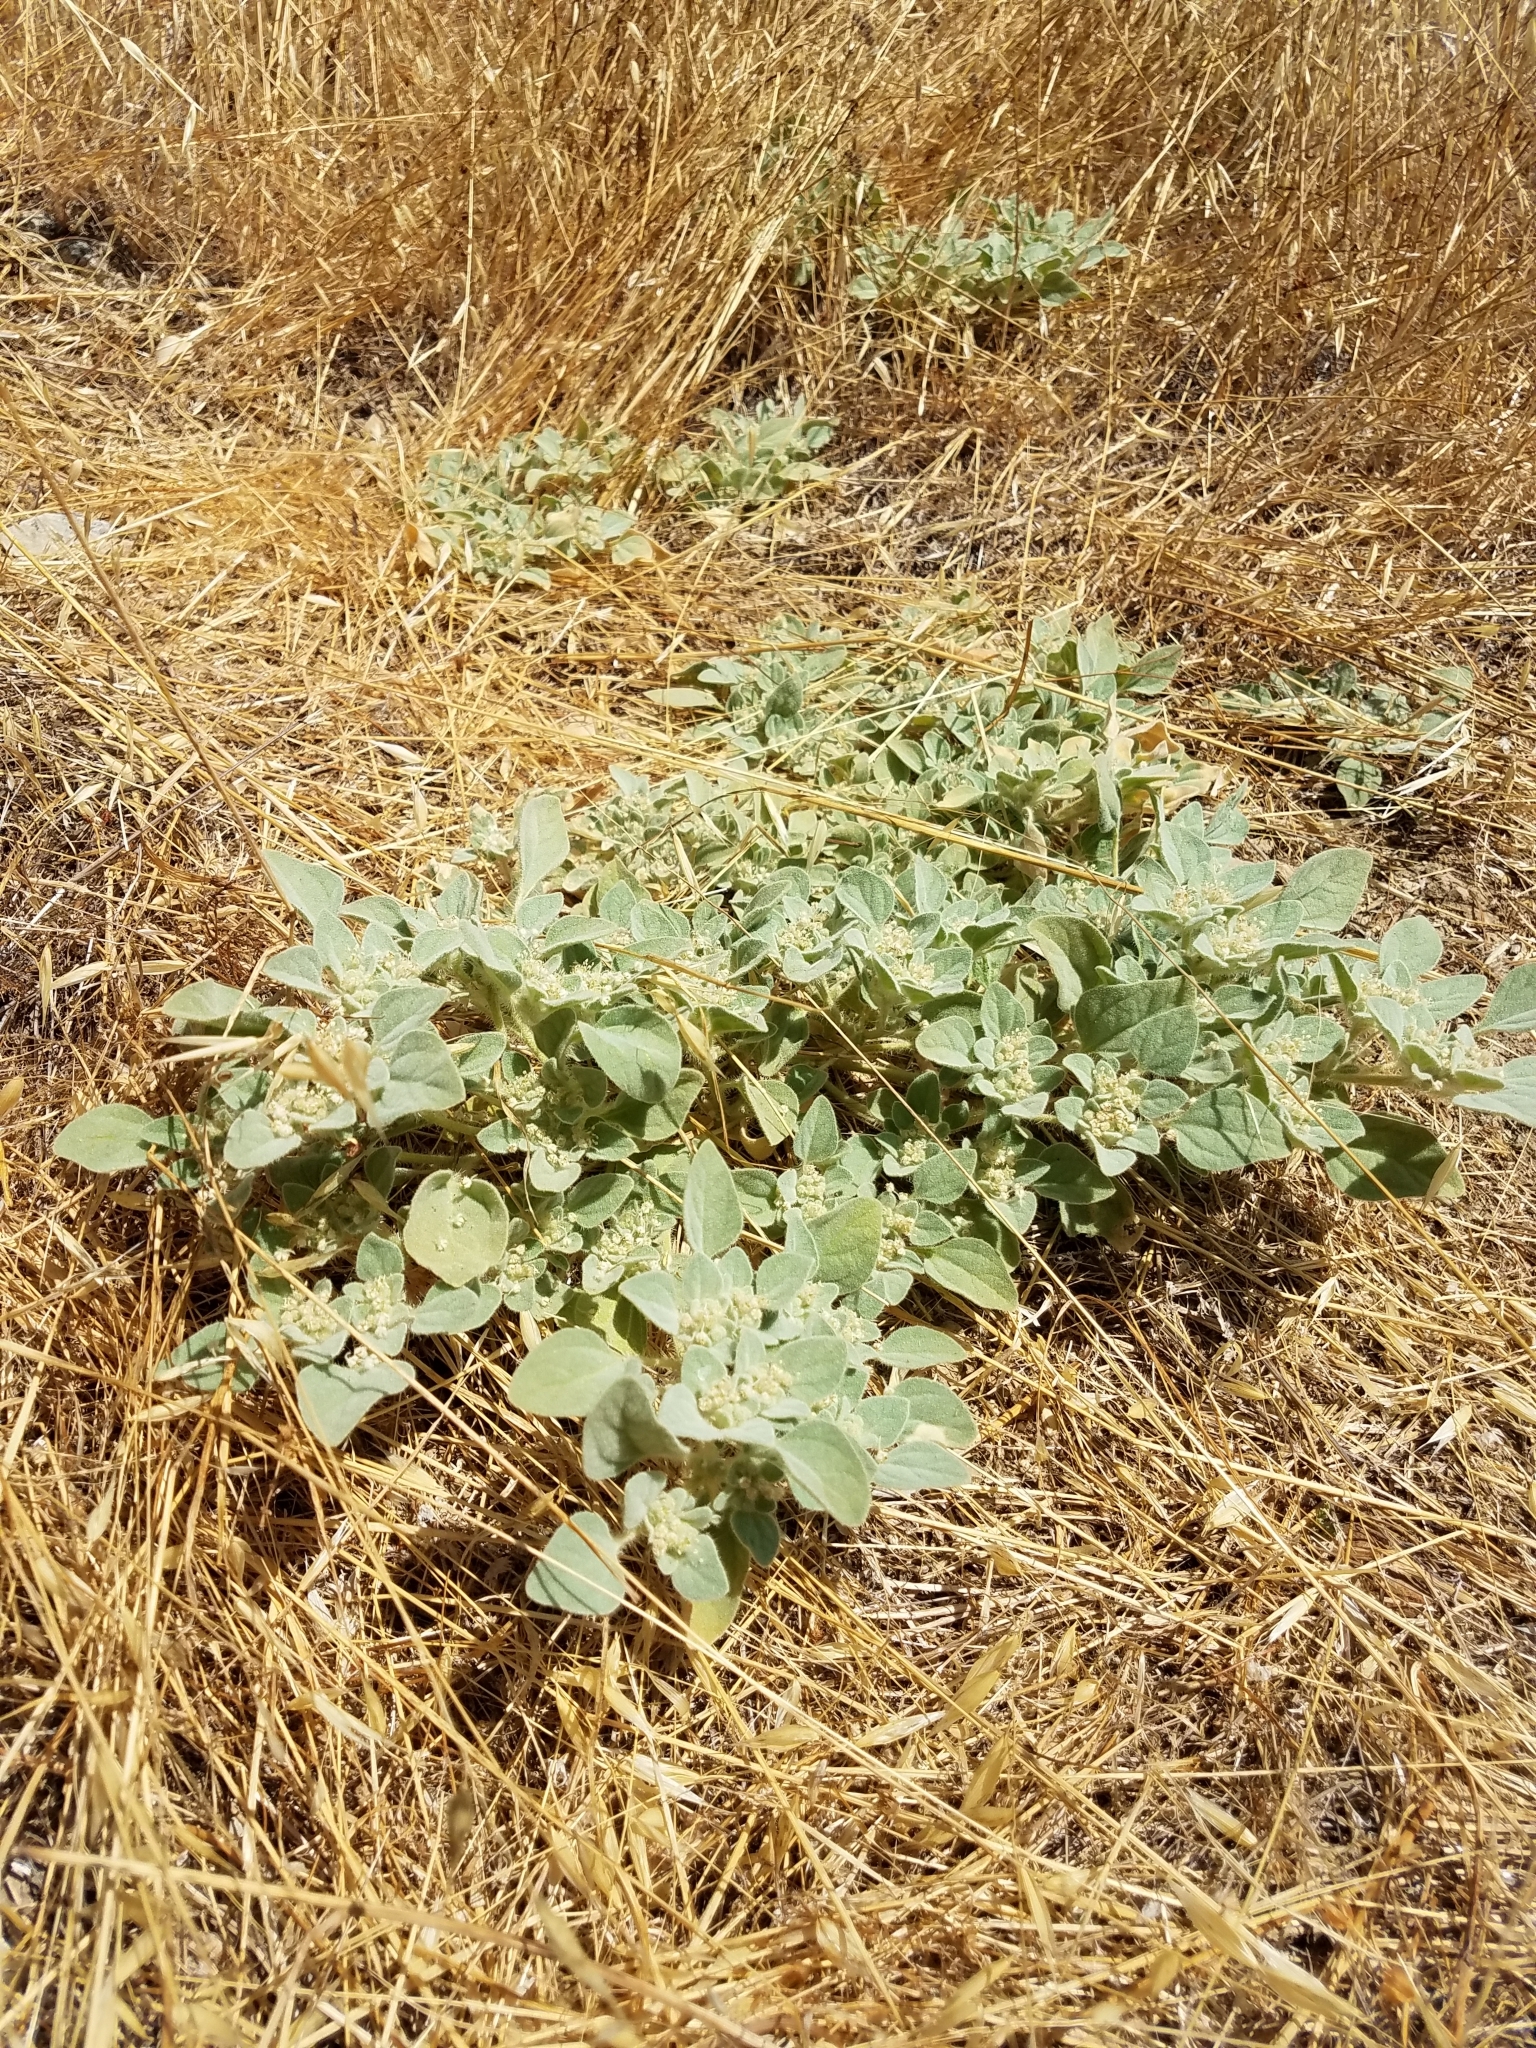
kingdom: Plantae
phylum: Tracheophyta
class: Magnoliopsida
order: Malpighiales
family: Euphorbiaceae
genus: Croton
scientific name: Croton setiger
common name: Dove weed
